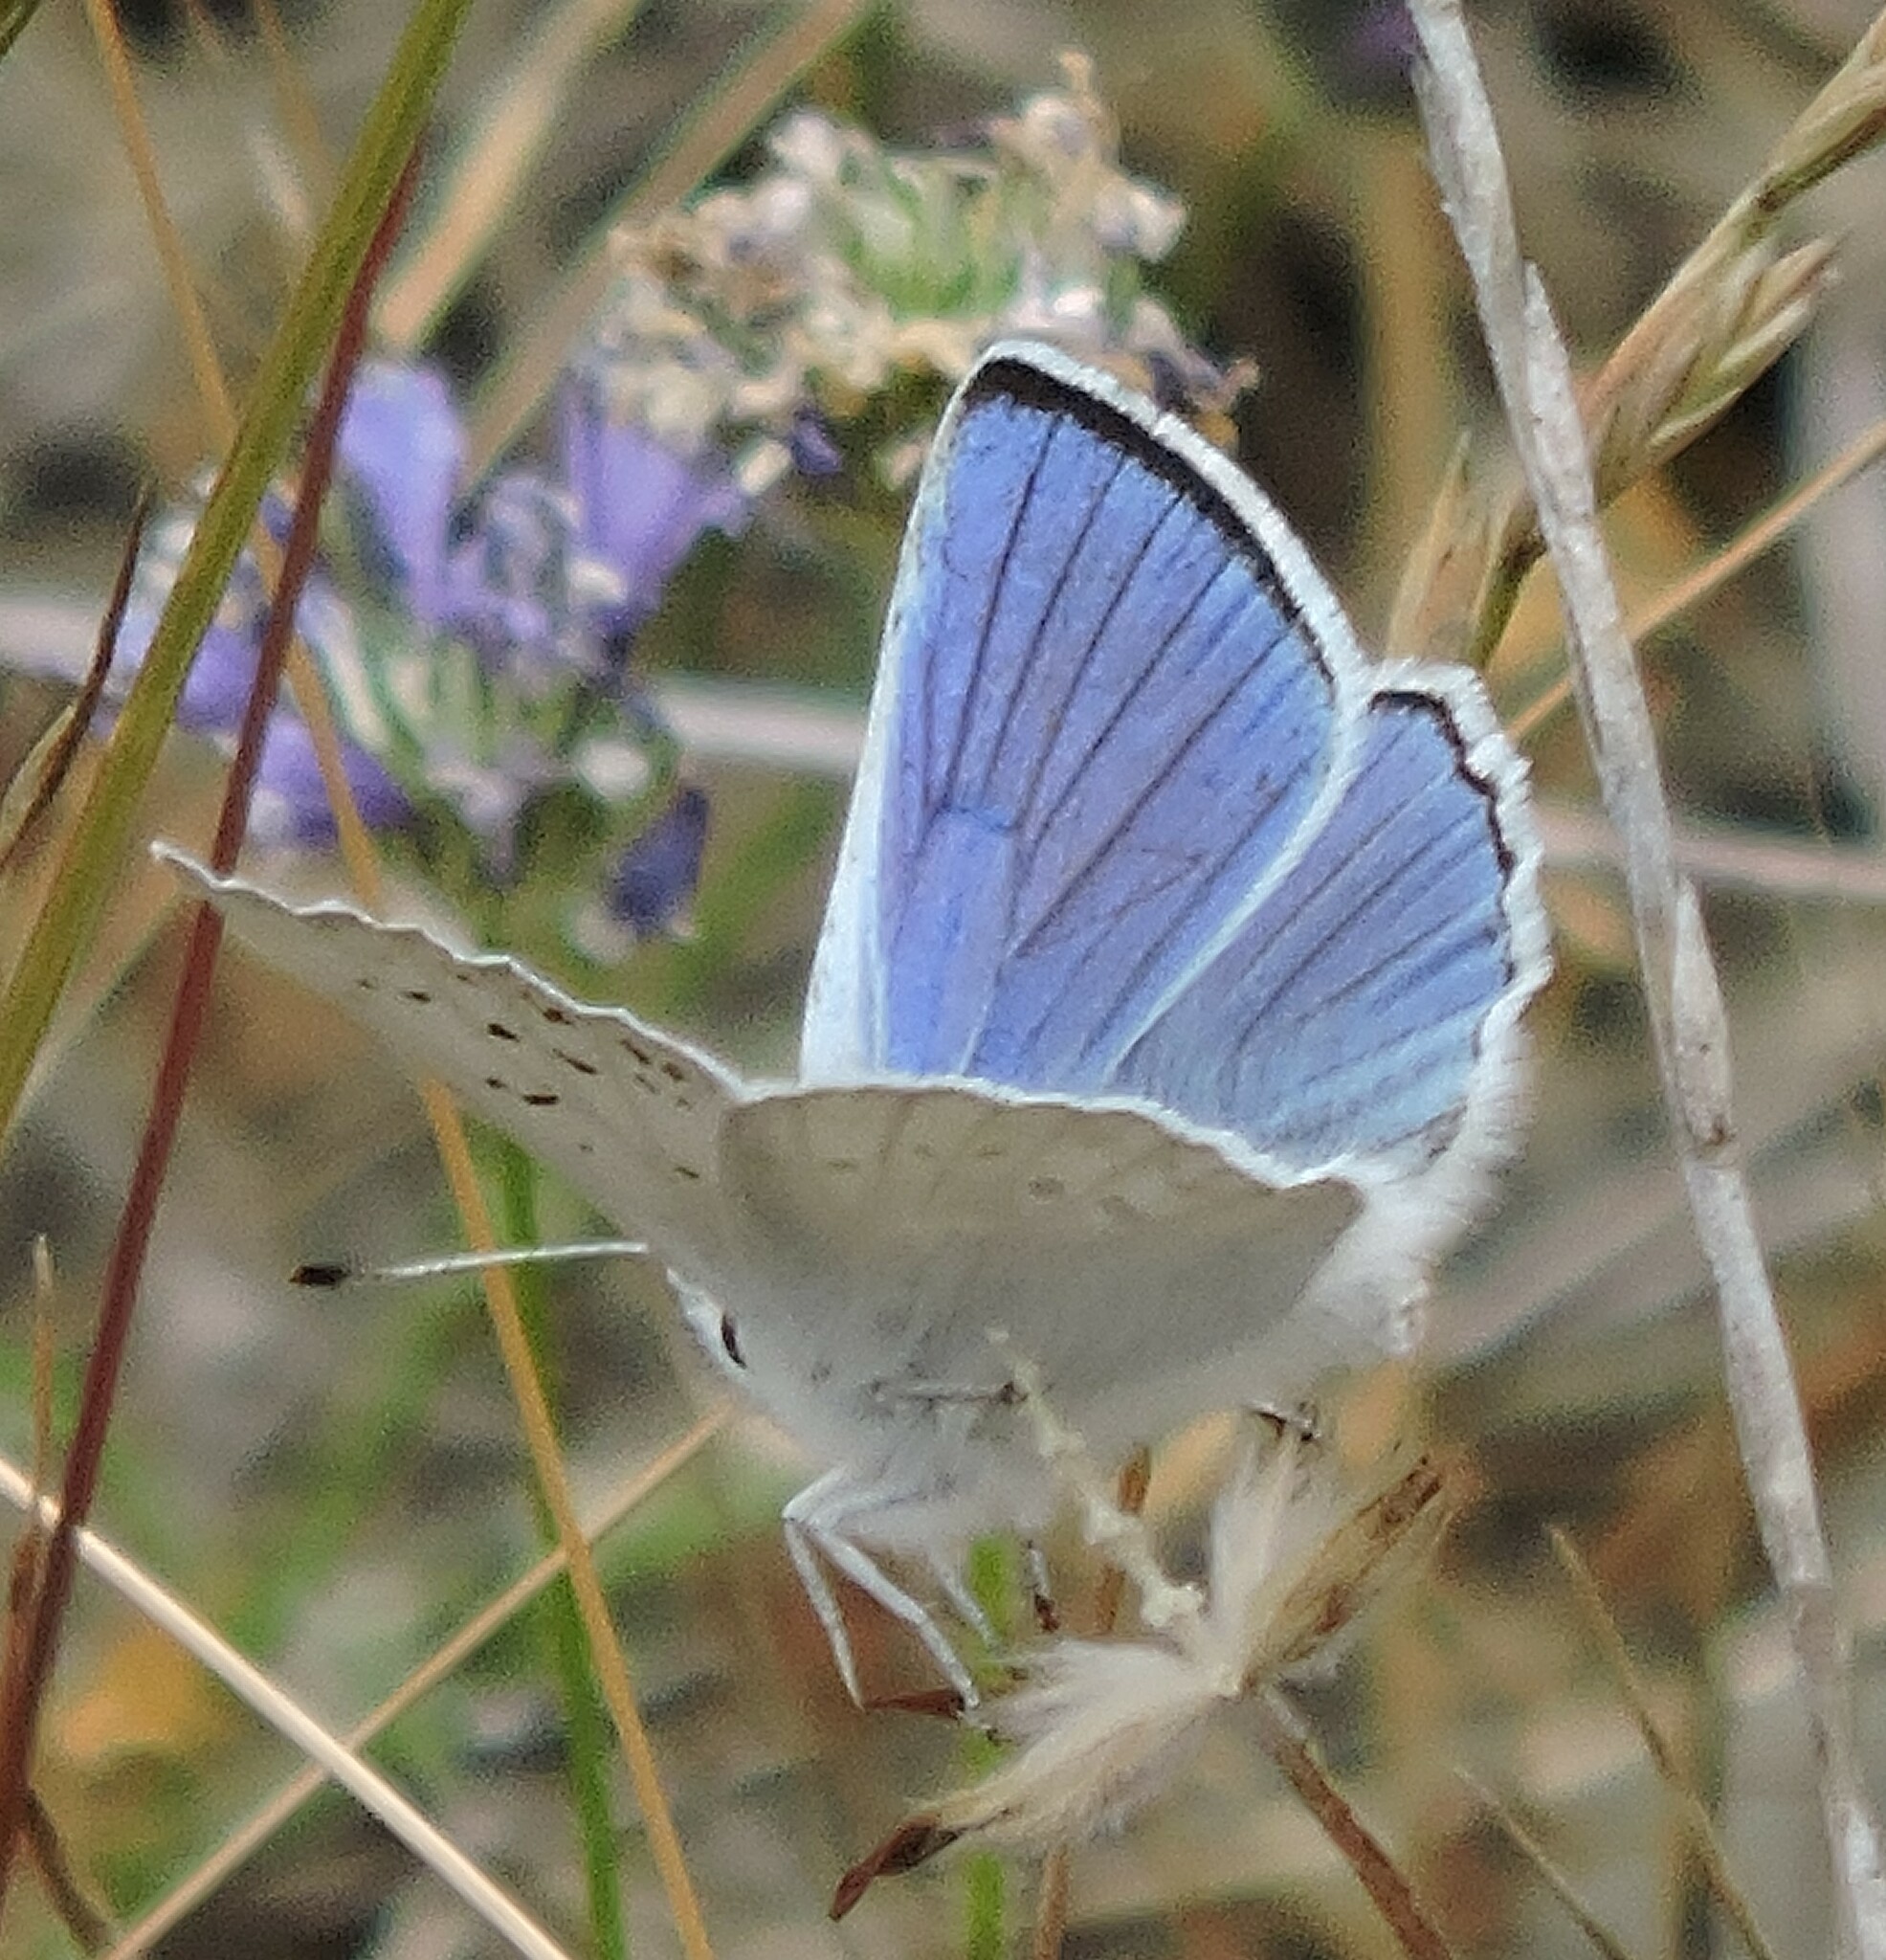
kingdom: Animalia
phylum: Arthropoda
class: Insecta
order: Lepidoptera
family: Lycaenidae
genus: Tharsalea
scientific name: Tharsalea heteronea
